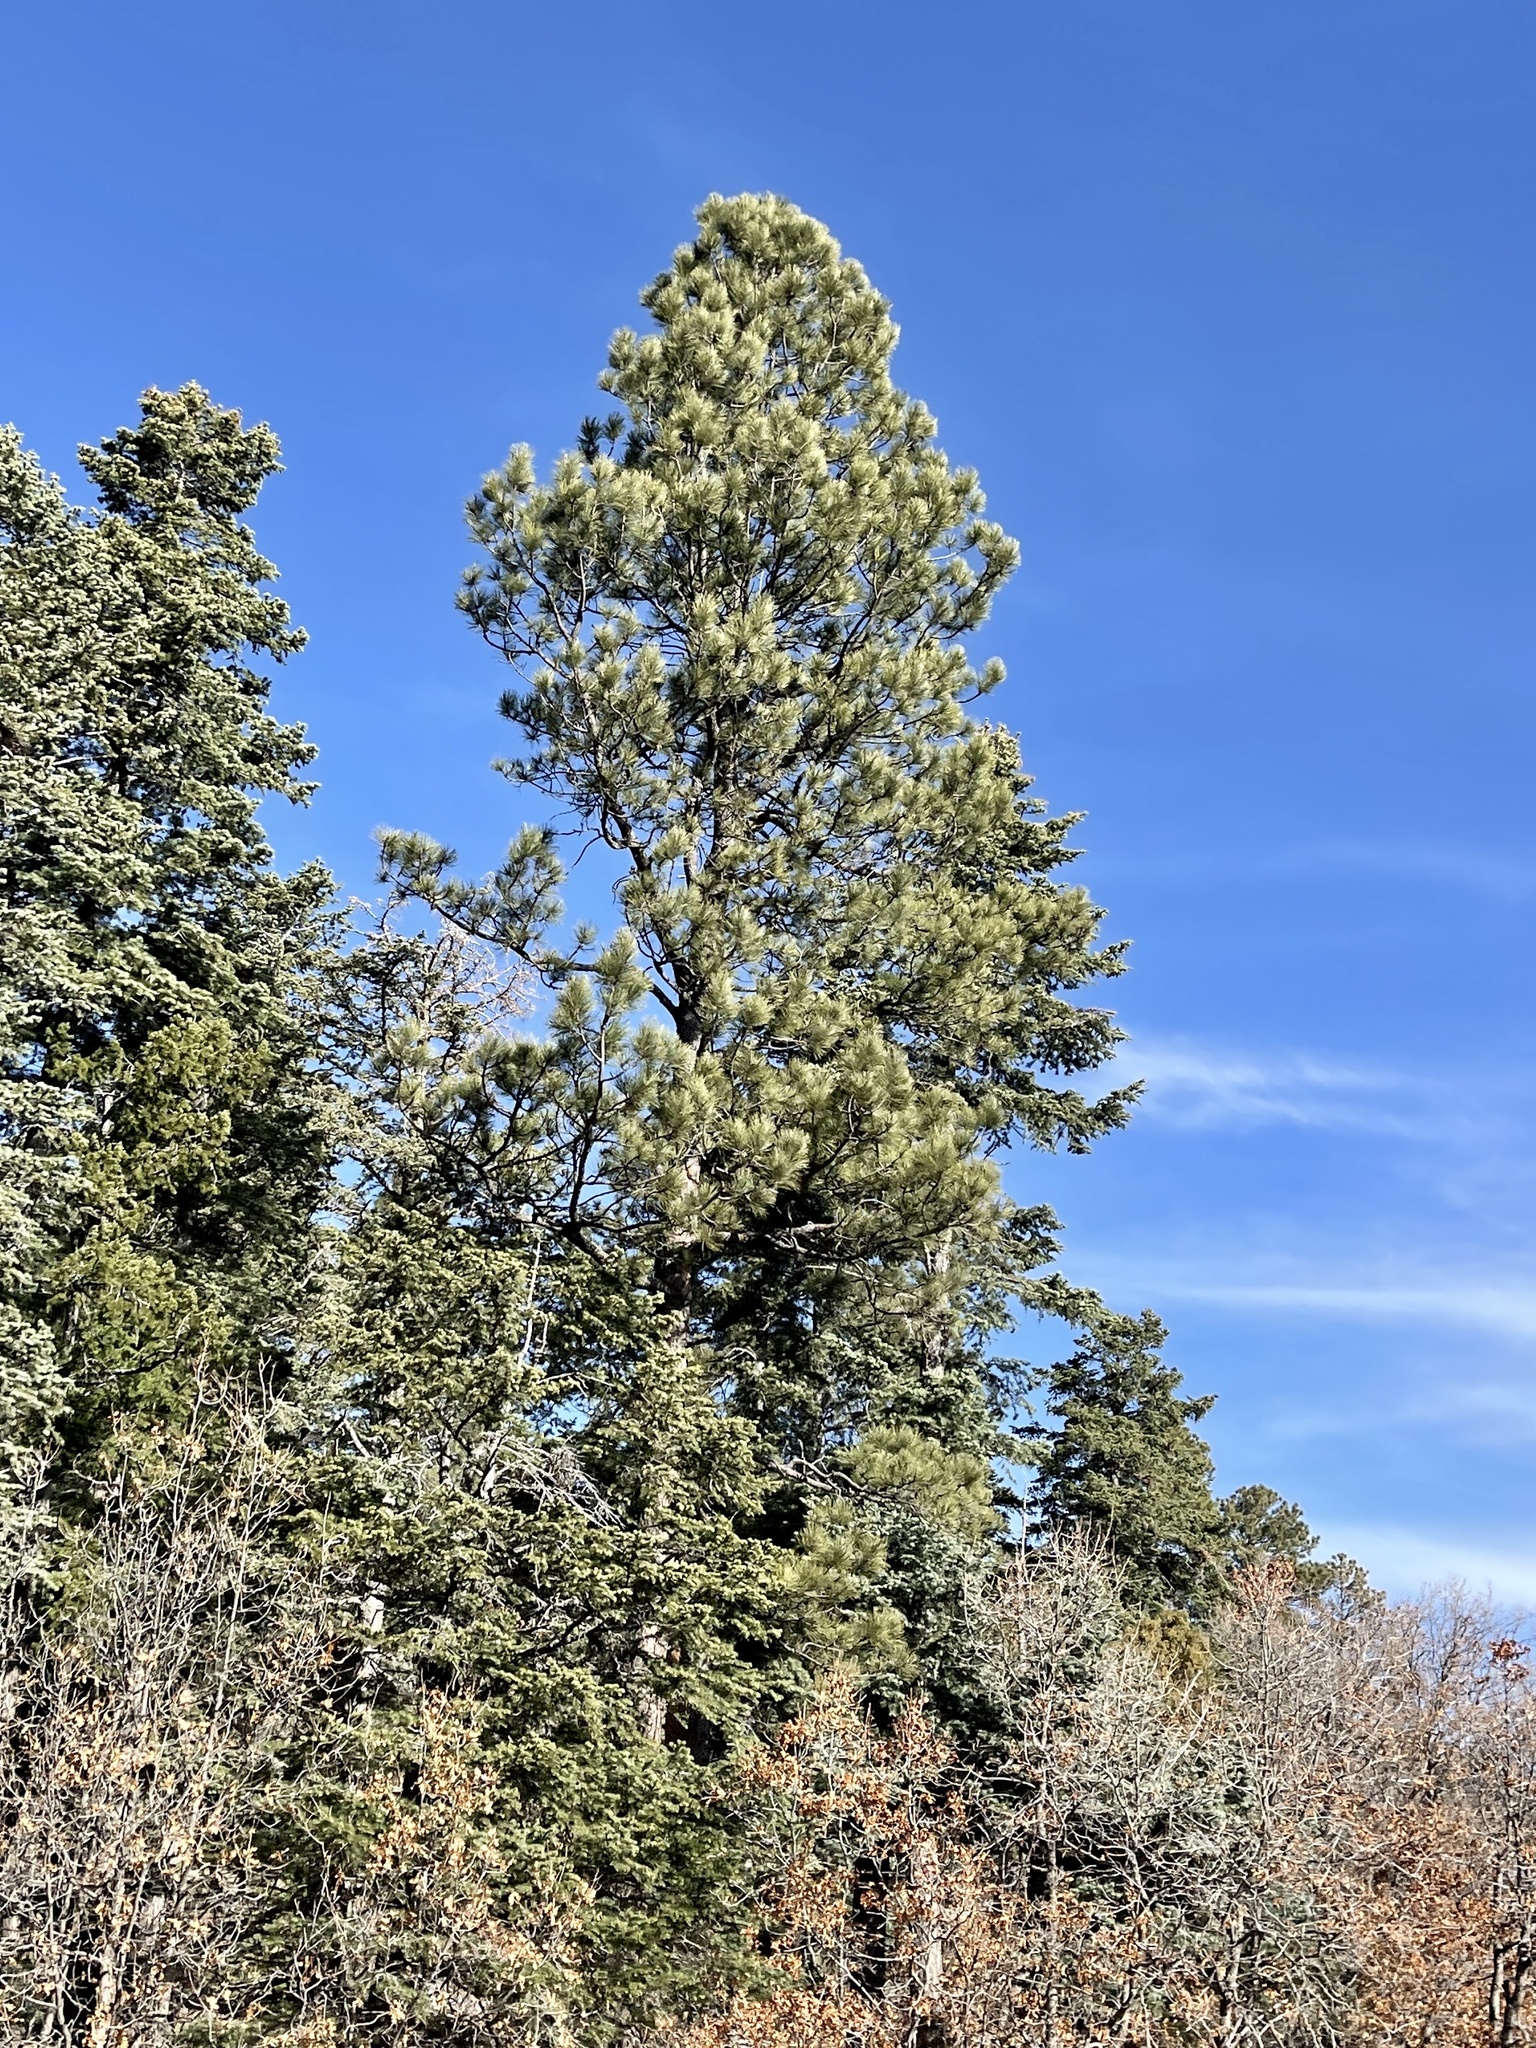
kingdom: Plantae
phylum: Tracheophyta
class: Pinopsida
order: Pinales
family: Pinaceae
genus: Pinus
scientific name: Pinus ponderosa
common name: Western yellow-pine
